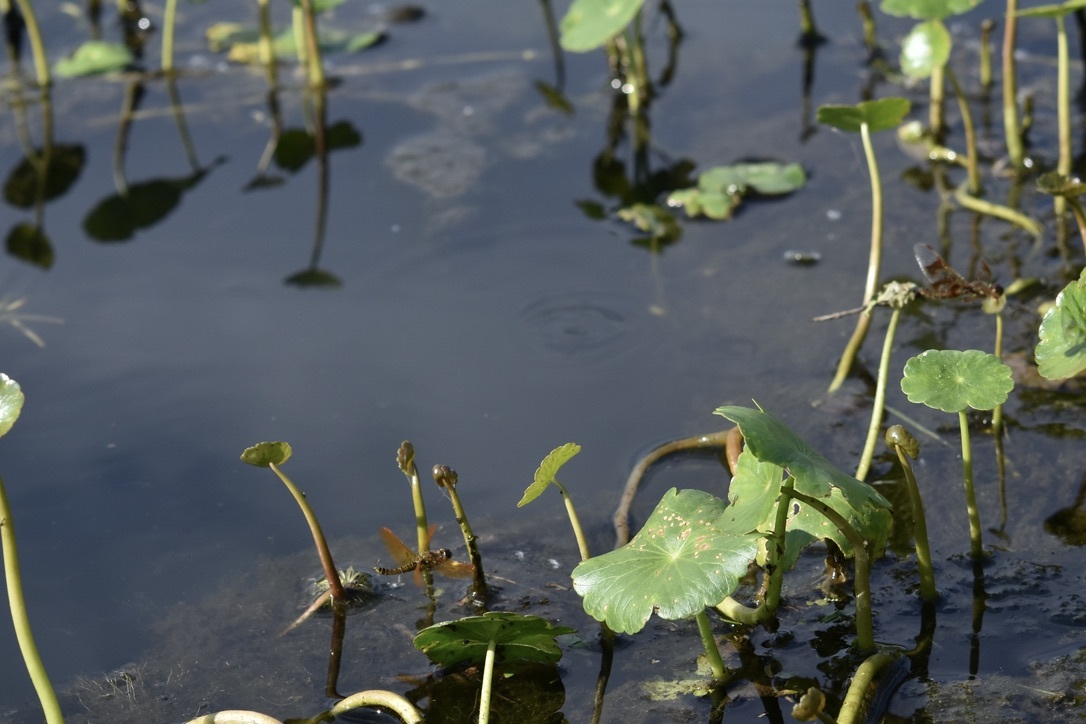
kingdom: Animalia
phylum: Arthropoda
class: Insecta
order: Odonata
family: Libellulidae
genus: Perithemis
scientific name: Perithemis tenera
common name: Eastern amberwing
